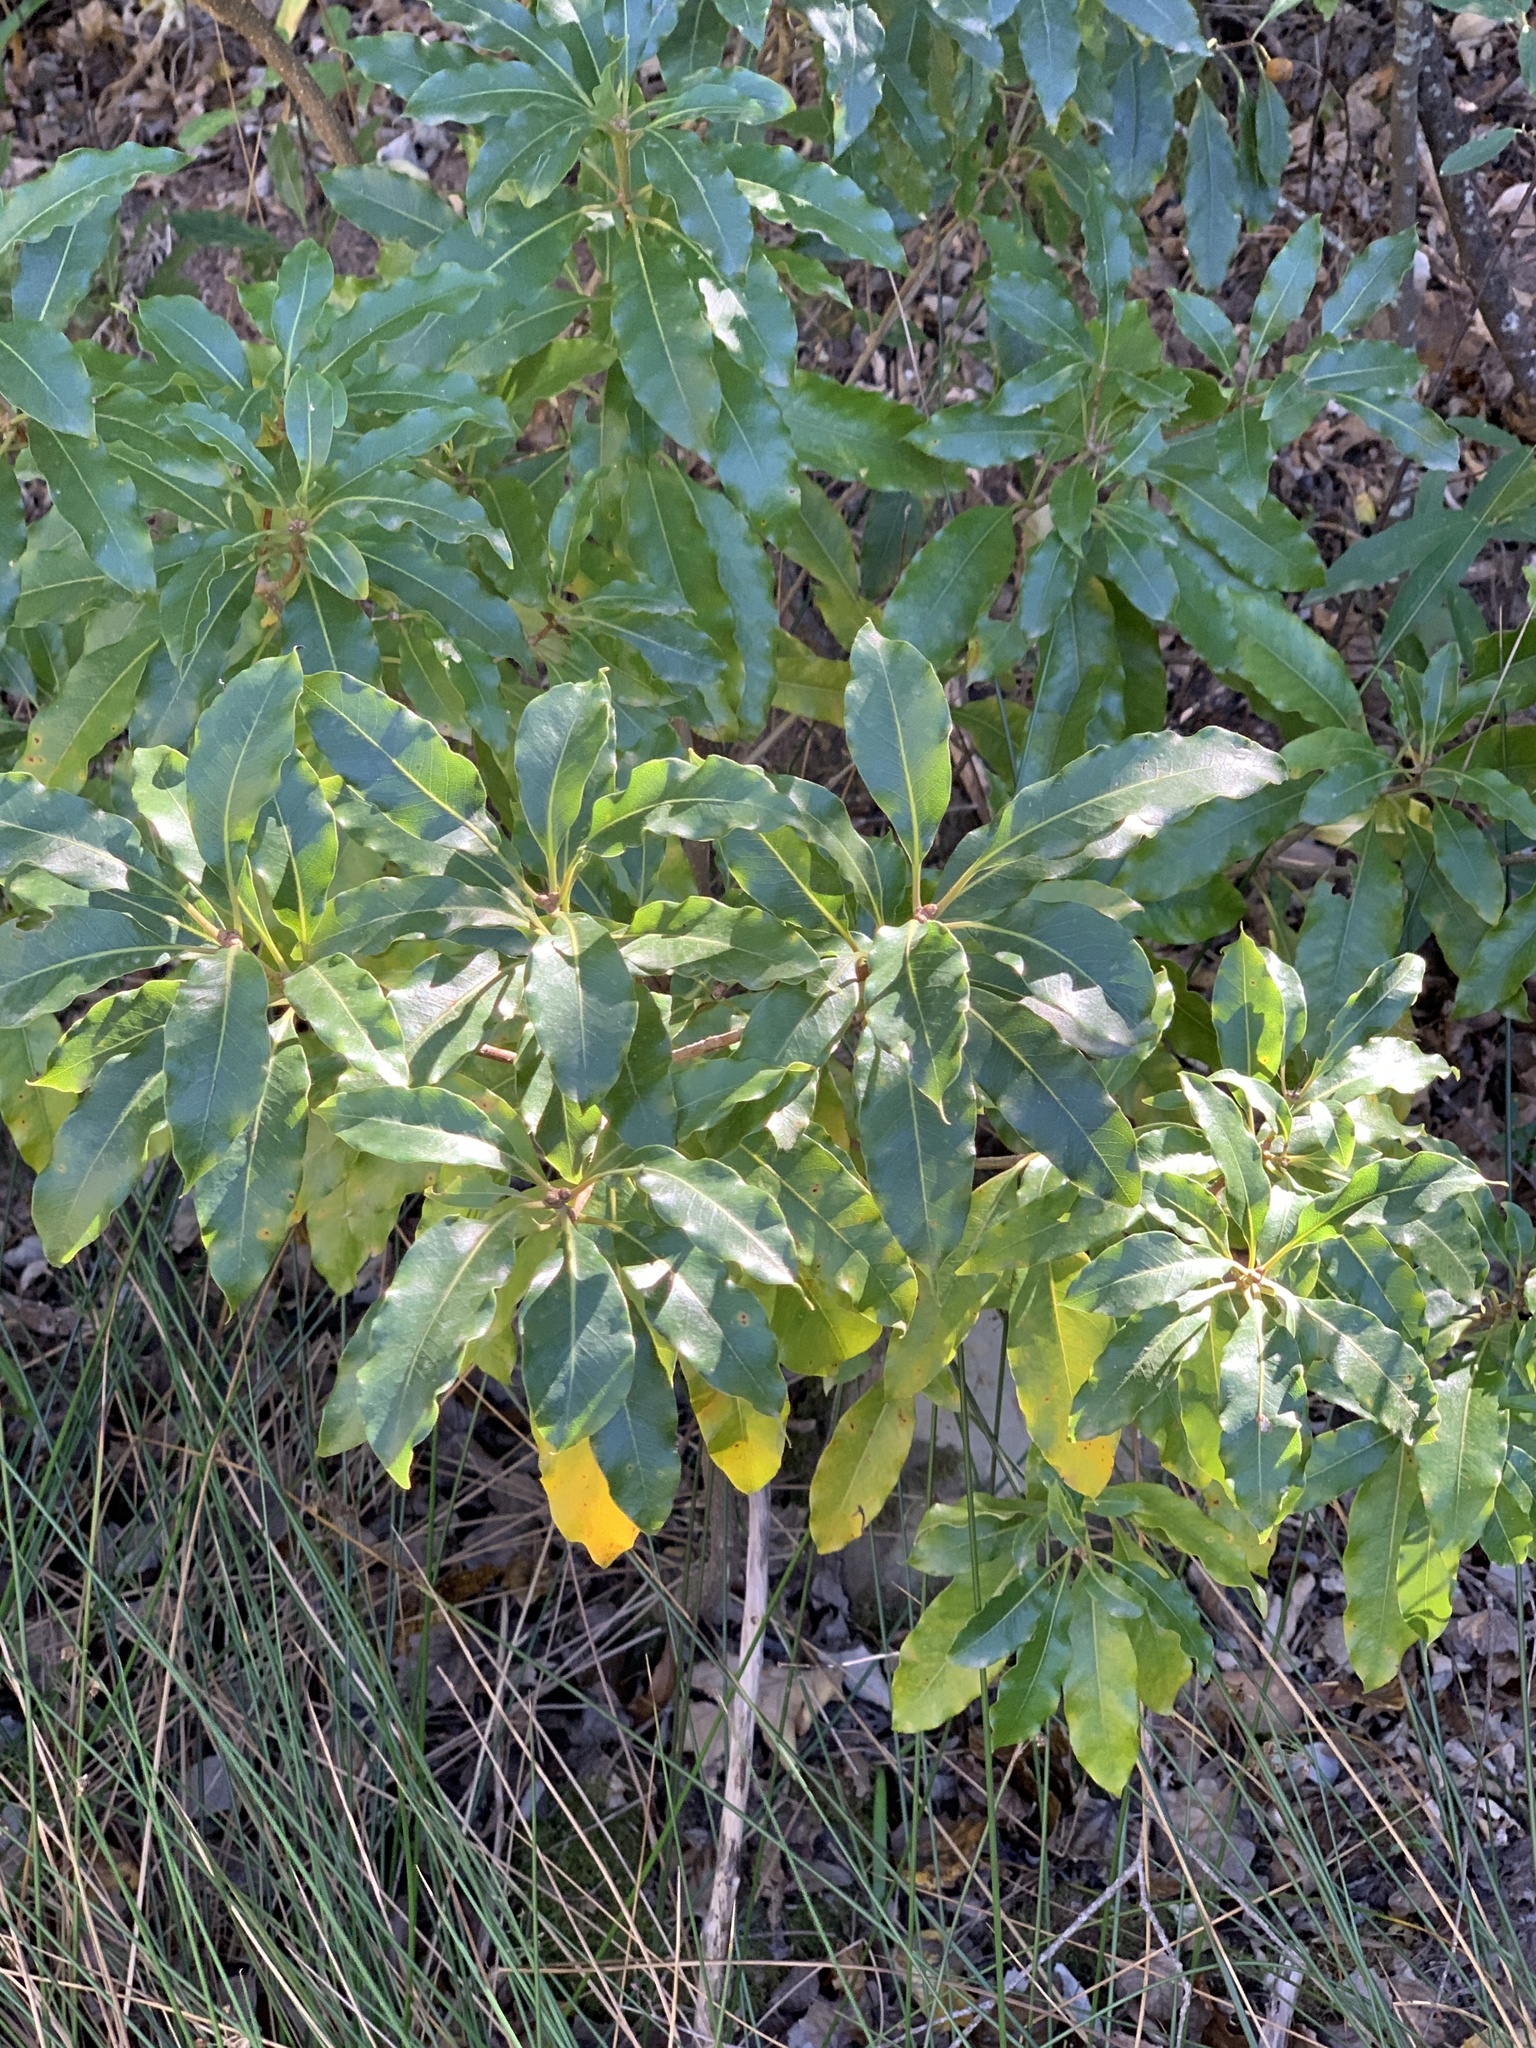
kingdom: Plantae
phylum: Tracheophyta
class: Magnoliopsida
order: Apiales
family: Pittosporaceae
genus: Pittosporum
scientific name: Pittosporum undulatum
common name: Australian cheesewood
